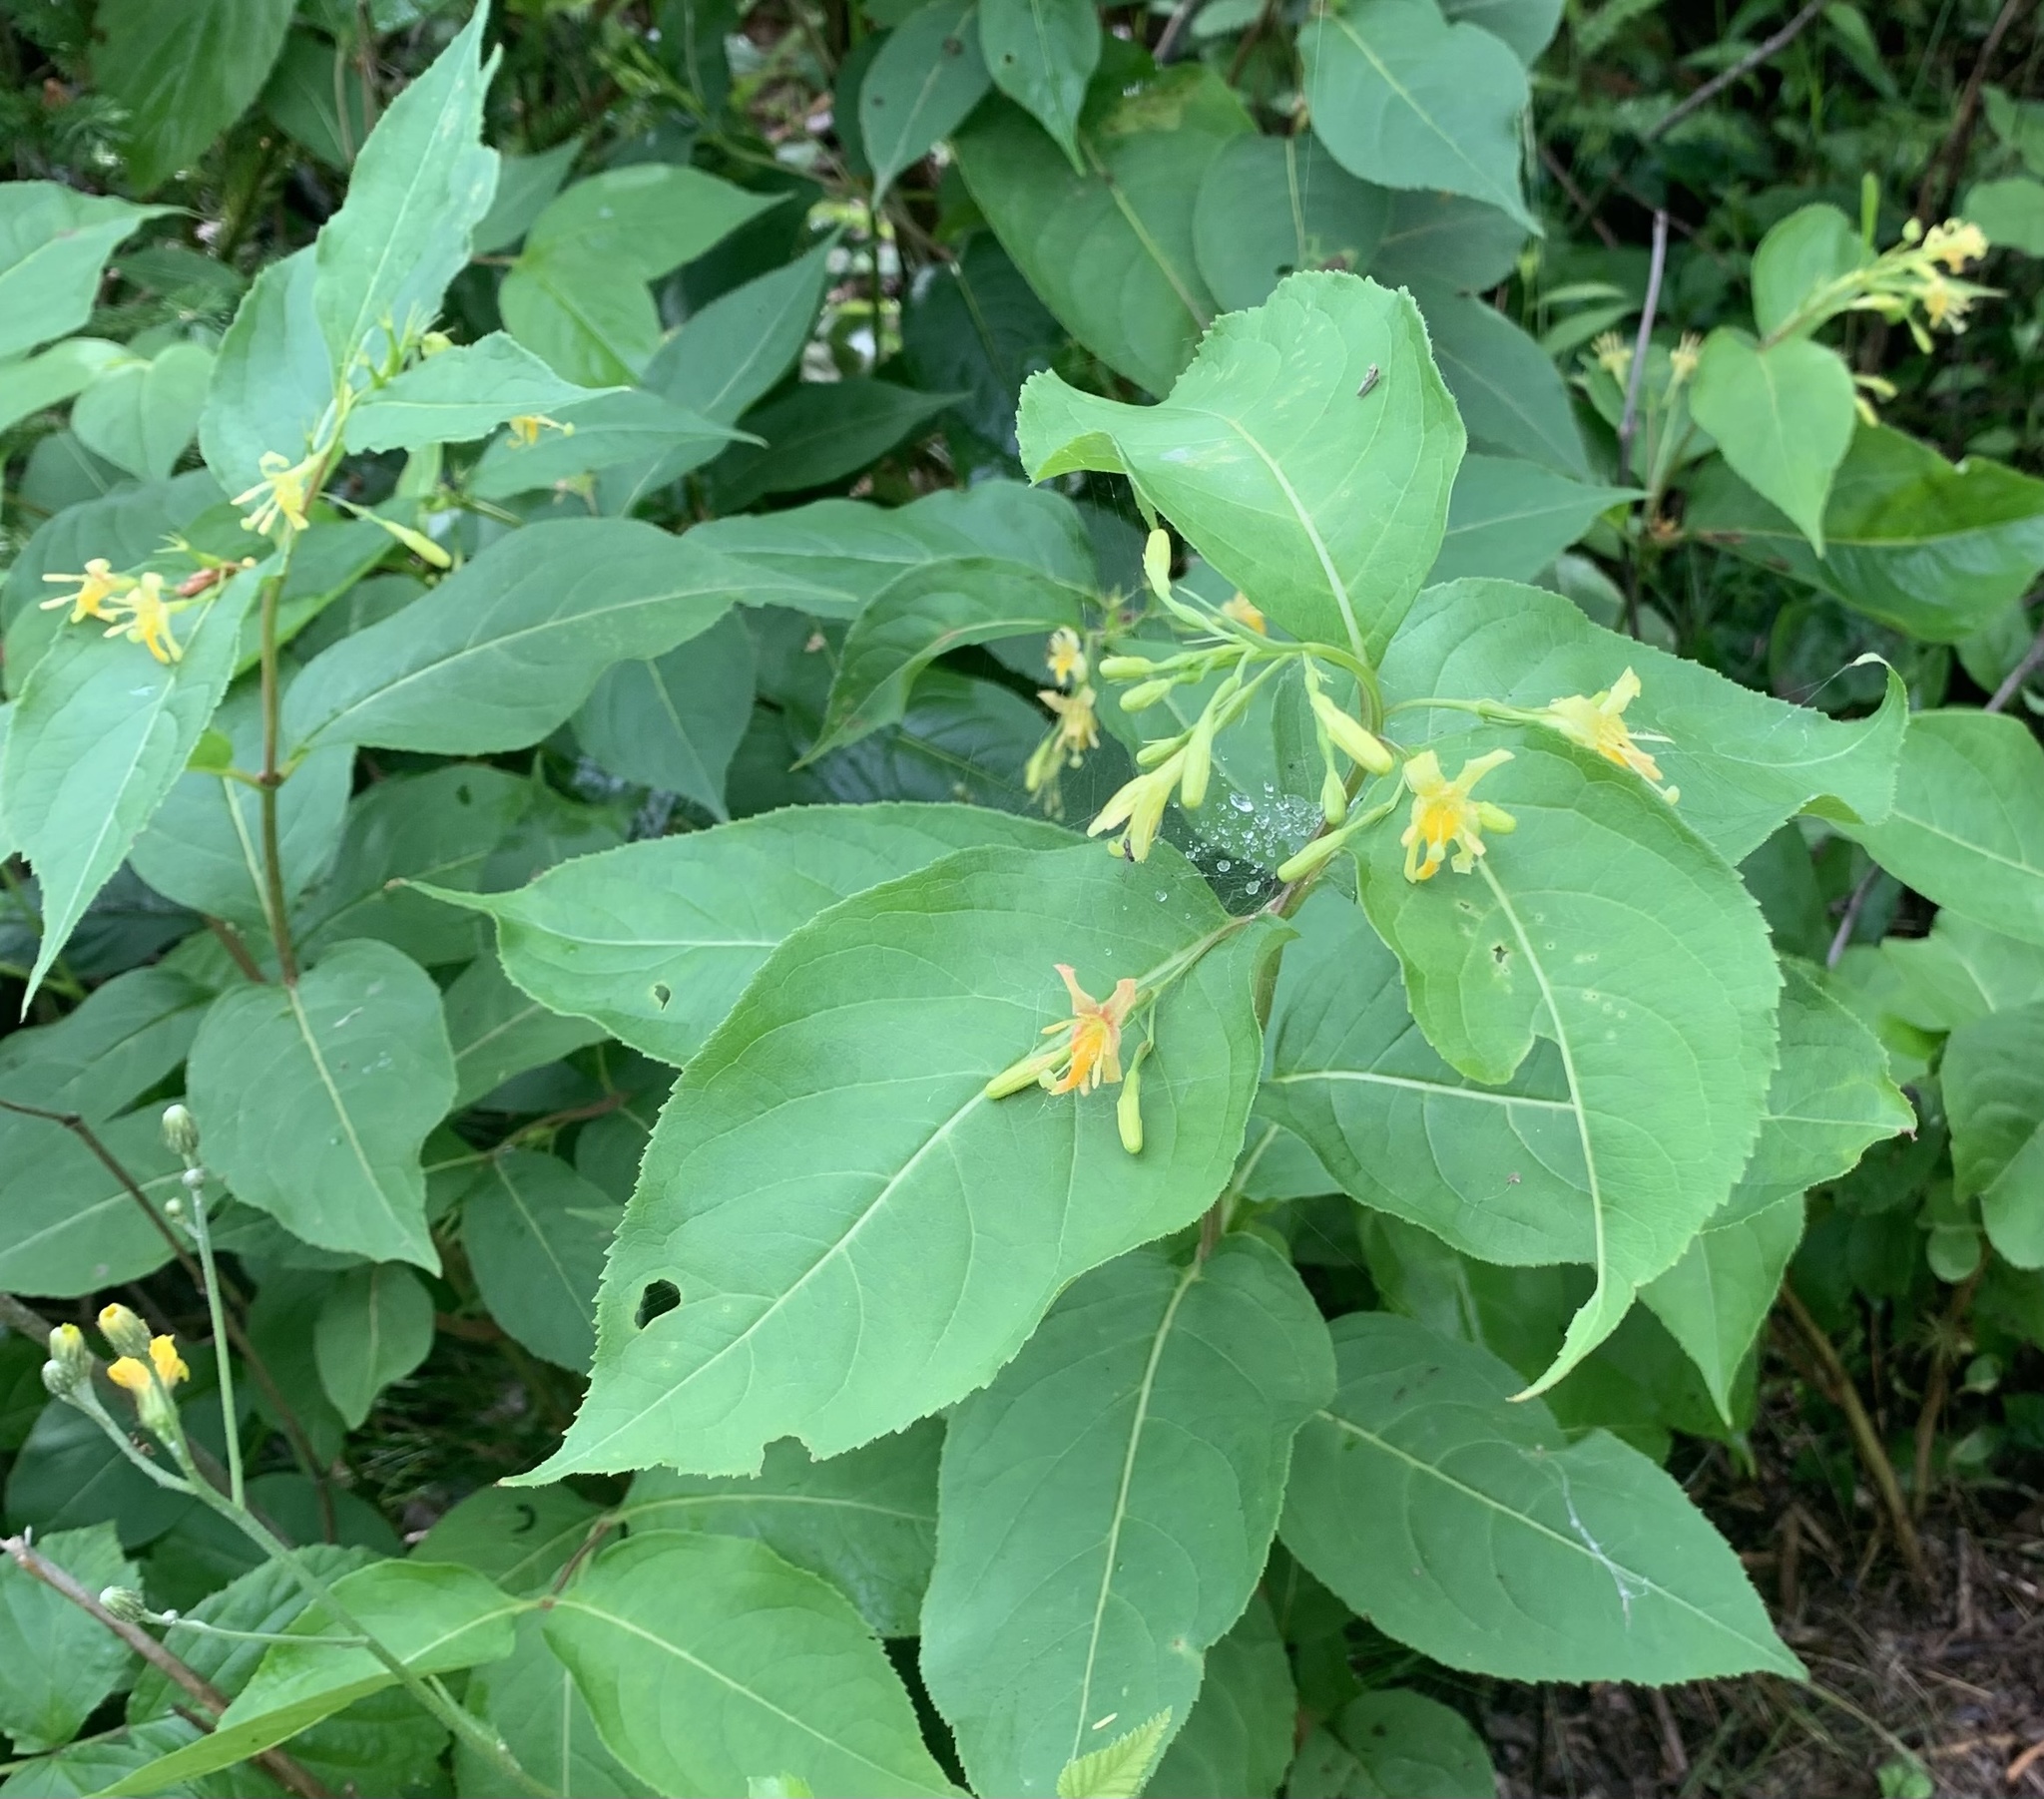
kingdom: Plantae
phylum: Tracheophyta
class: Magnoliopsida
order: Dipsacales
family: Caprifoliaceae
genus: Diervilla
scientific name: Diervilla lonicera
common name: Bush-honeysuckle
